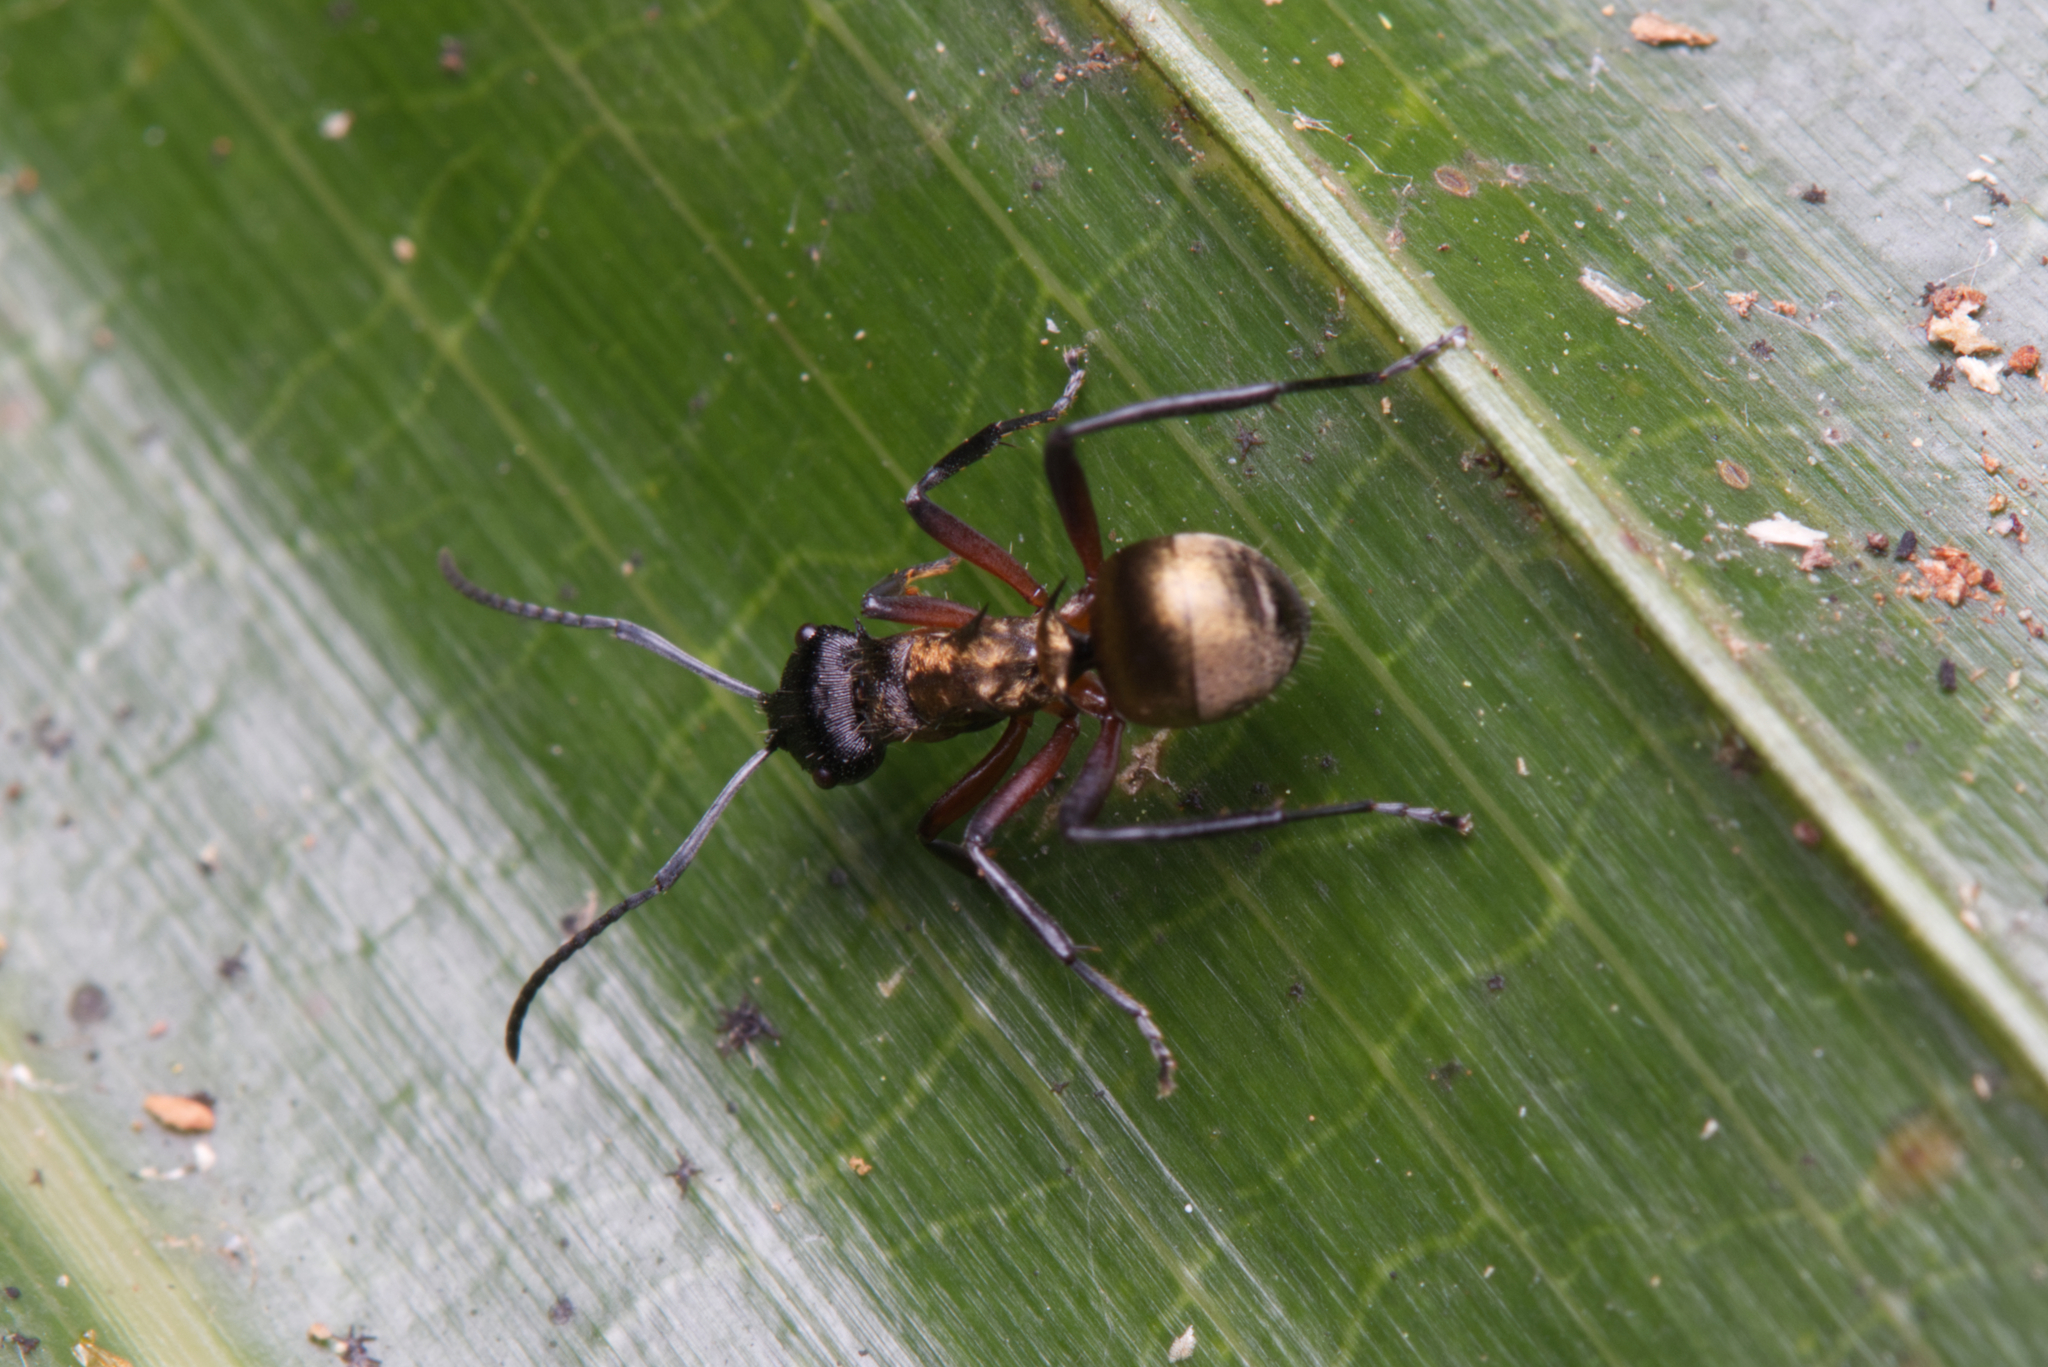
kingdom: Animalia
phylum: Arthropoda
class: Insecta
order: Hymenoptera
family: Formicidae
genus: Polyrhachis
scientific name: Polyrhachis rufifemur
